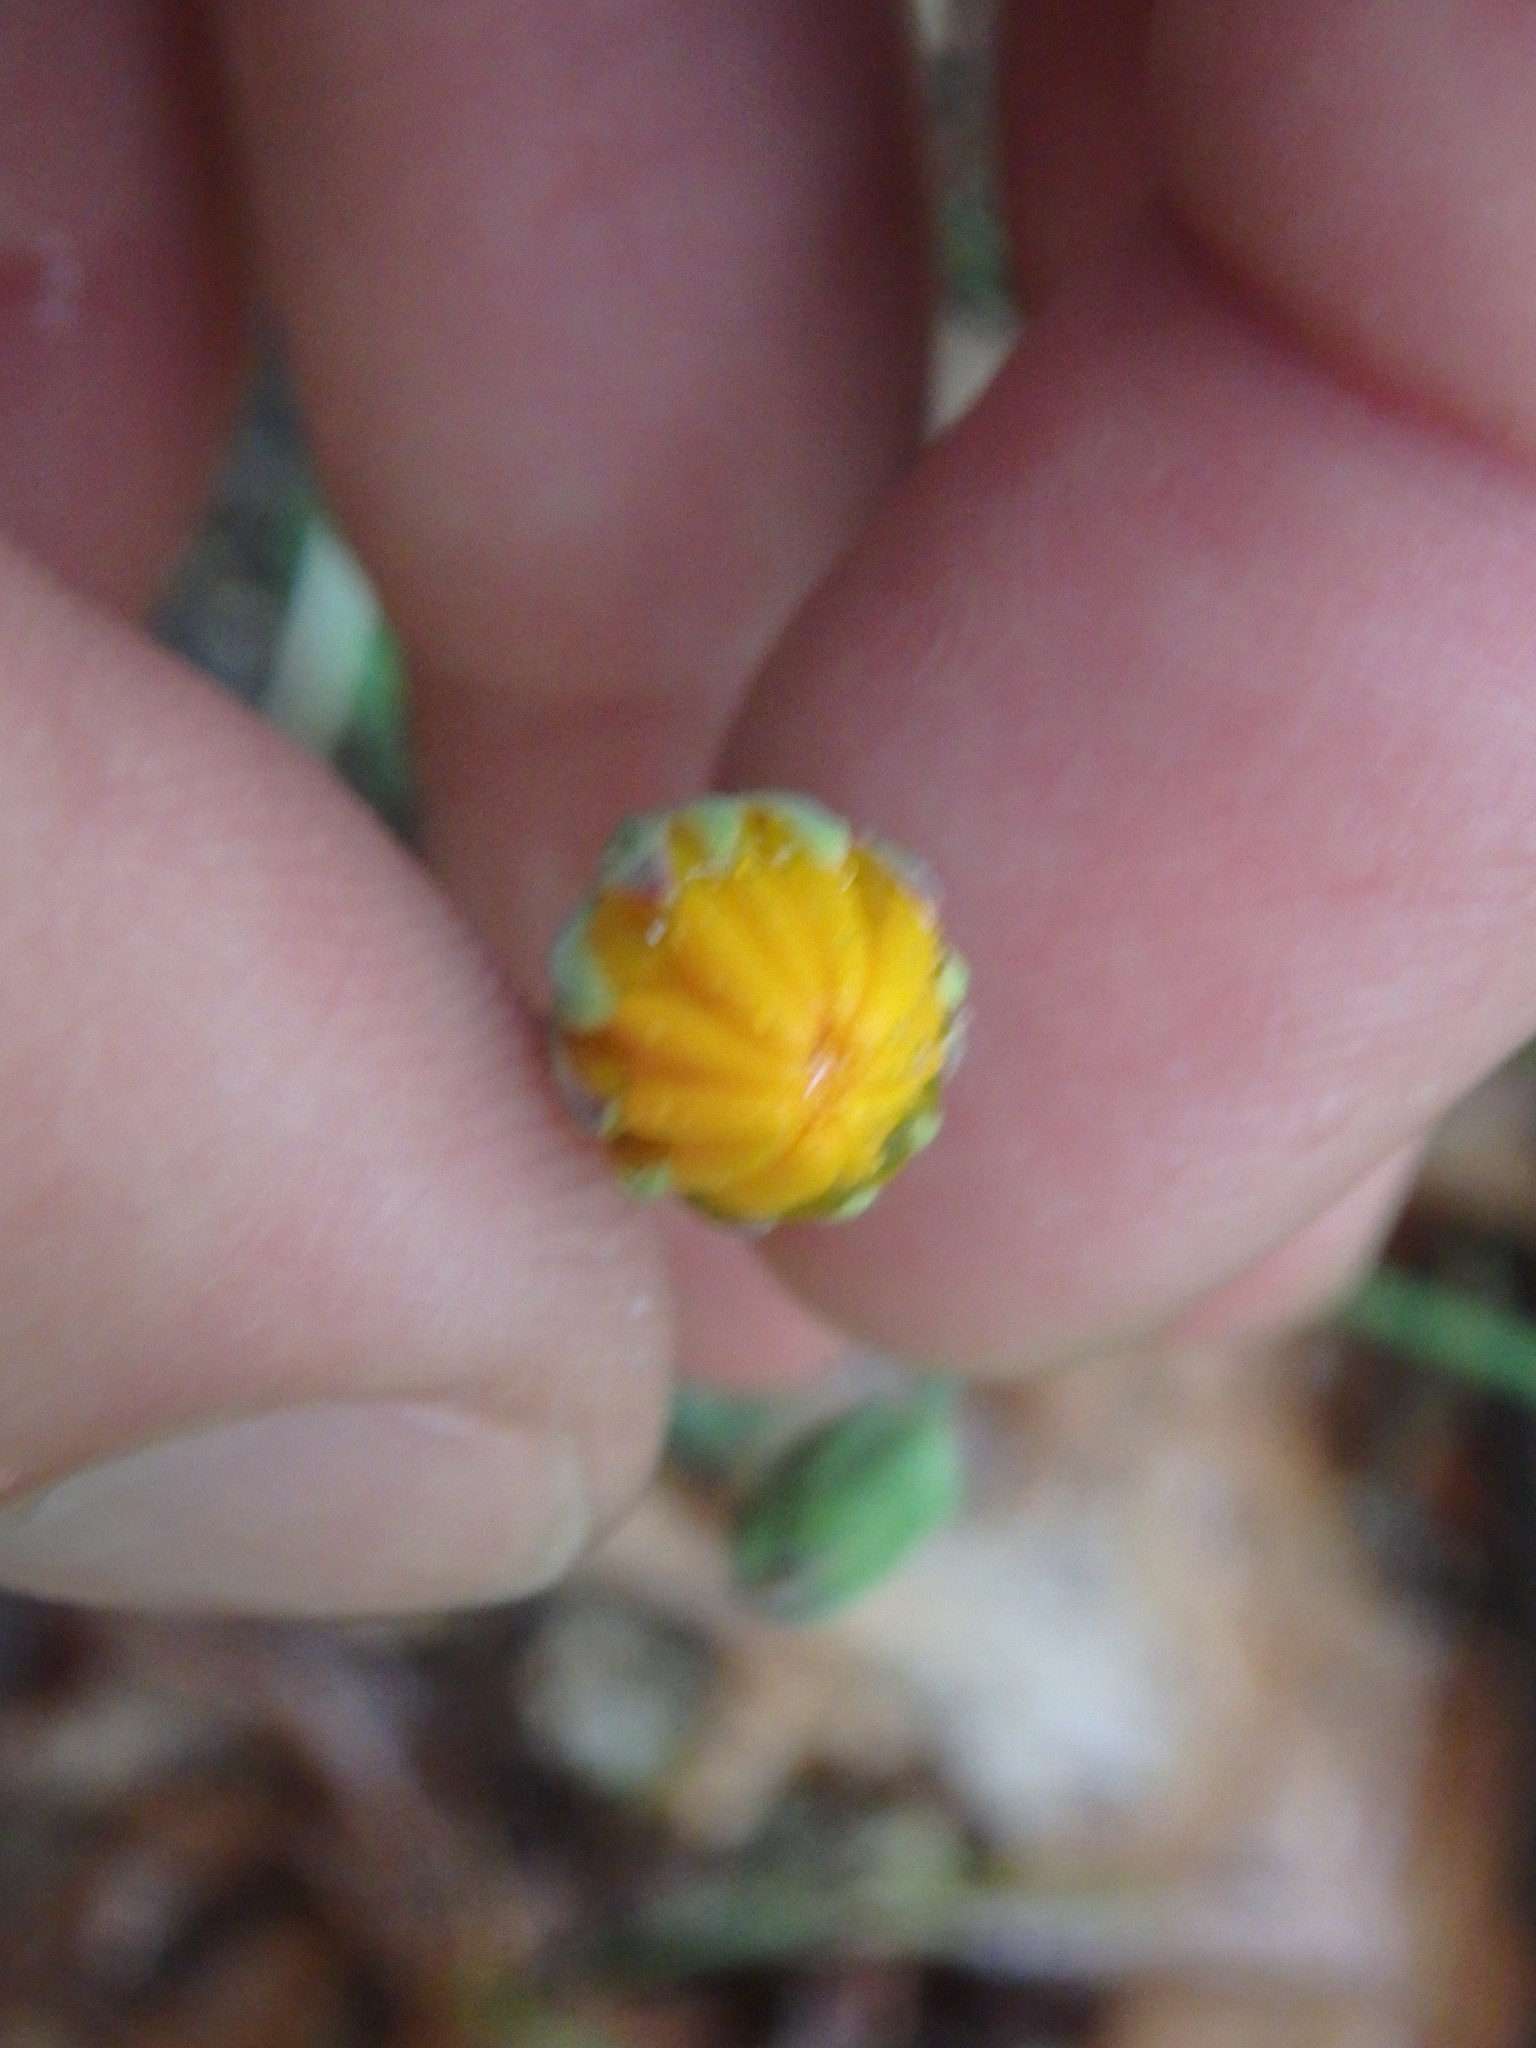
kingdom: Plantae
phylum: Tracheophyta
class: Magnoliopsida
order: Asterales
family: Asteraceae
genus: Krigia
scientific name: Krigia biflora
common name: Orange dwarf-dandelion
